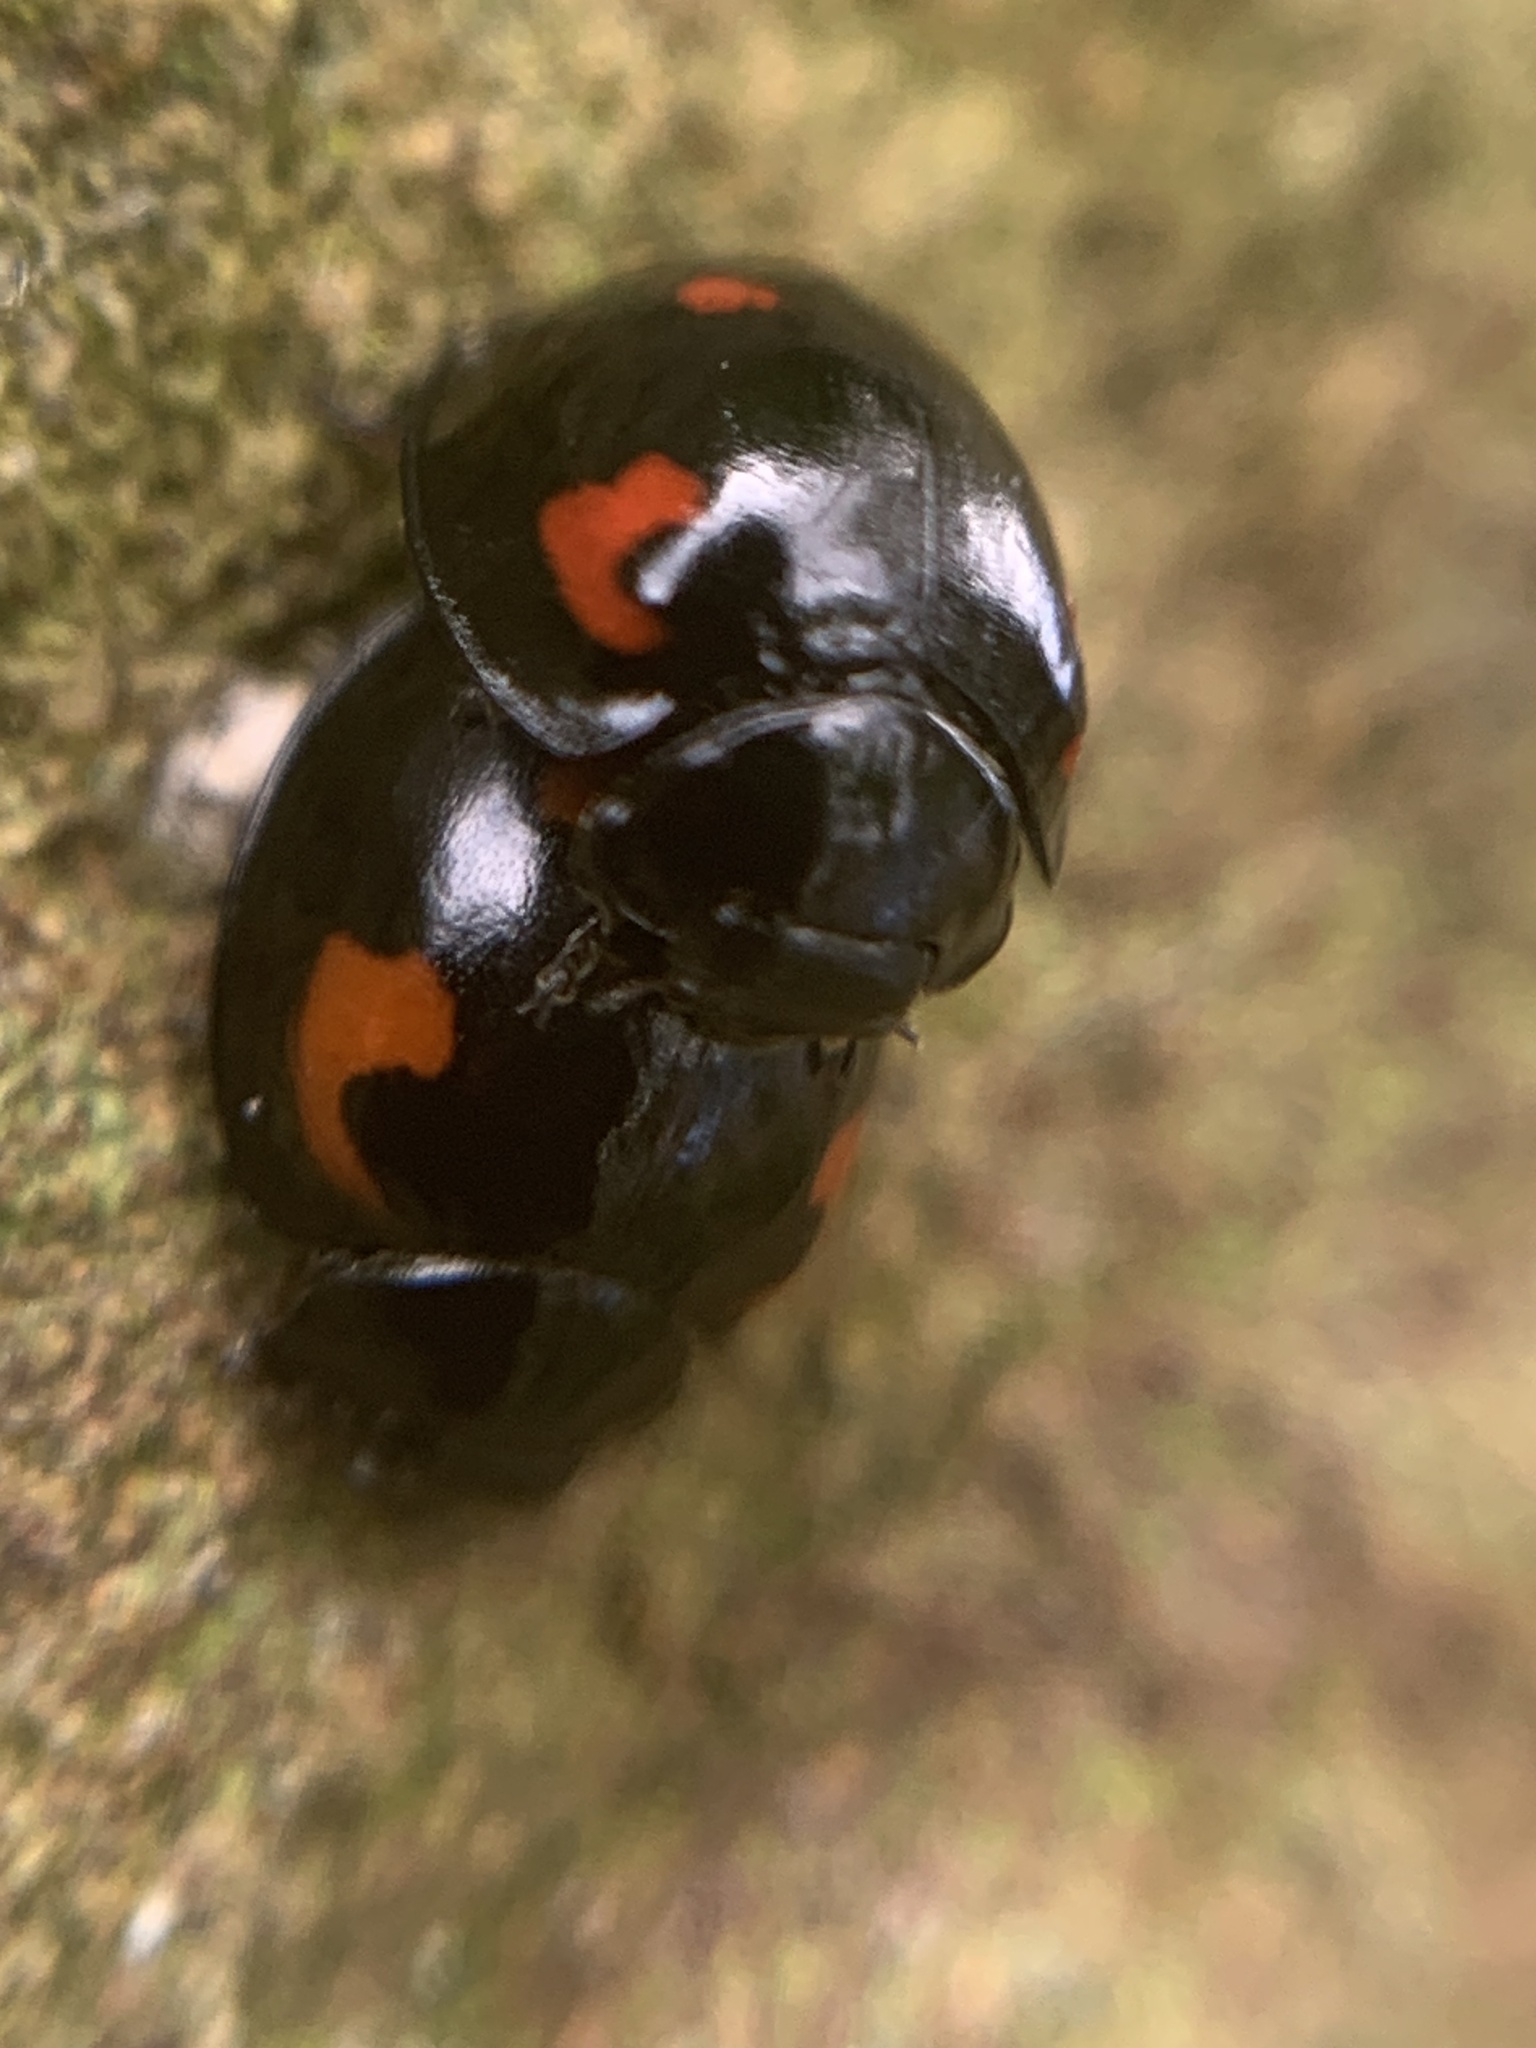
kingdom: Animalia
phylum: Arthropoda
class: Insecta
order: Coleoptera
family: Coccinellidae
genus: Brumus
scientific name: Brumus quadripustulatus
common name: Ladybird beetle
